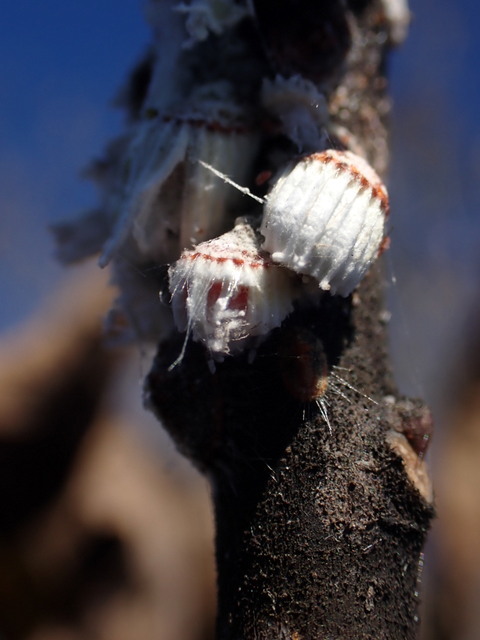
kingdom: Animalia
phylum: Arthropoda
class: Insecta
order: Hemiptera
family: Margarodidae
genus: Icerya
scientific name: Icerya purchasi
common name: Cottony cushion scale
